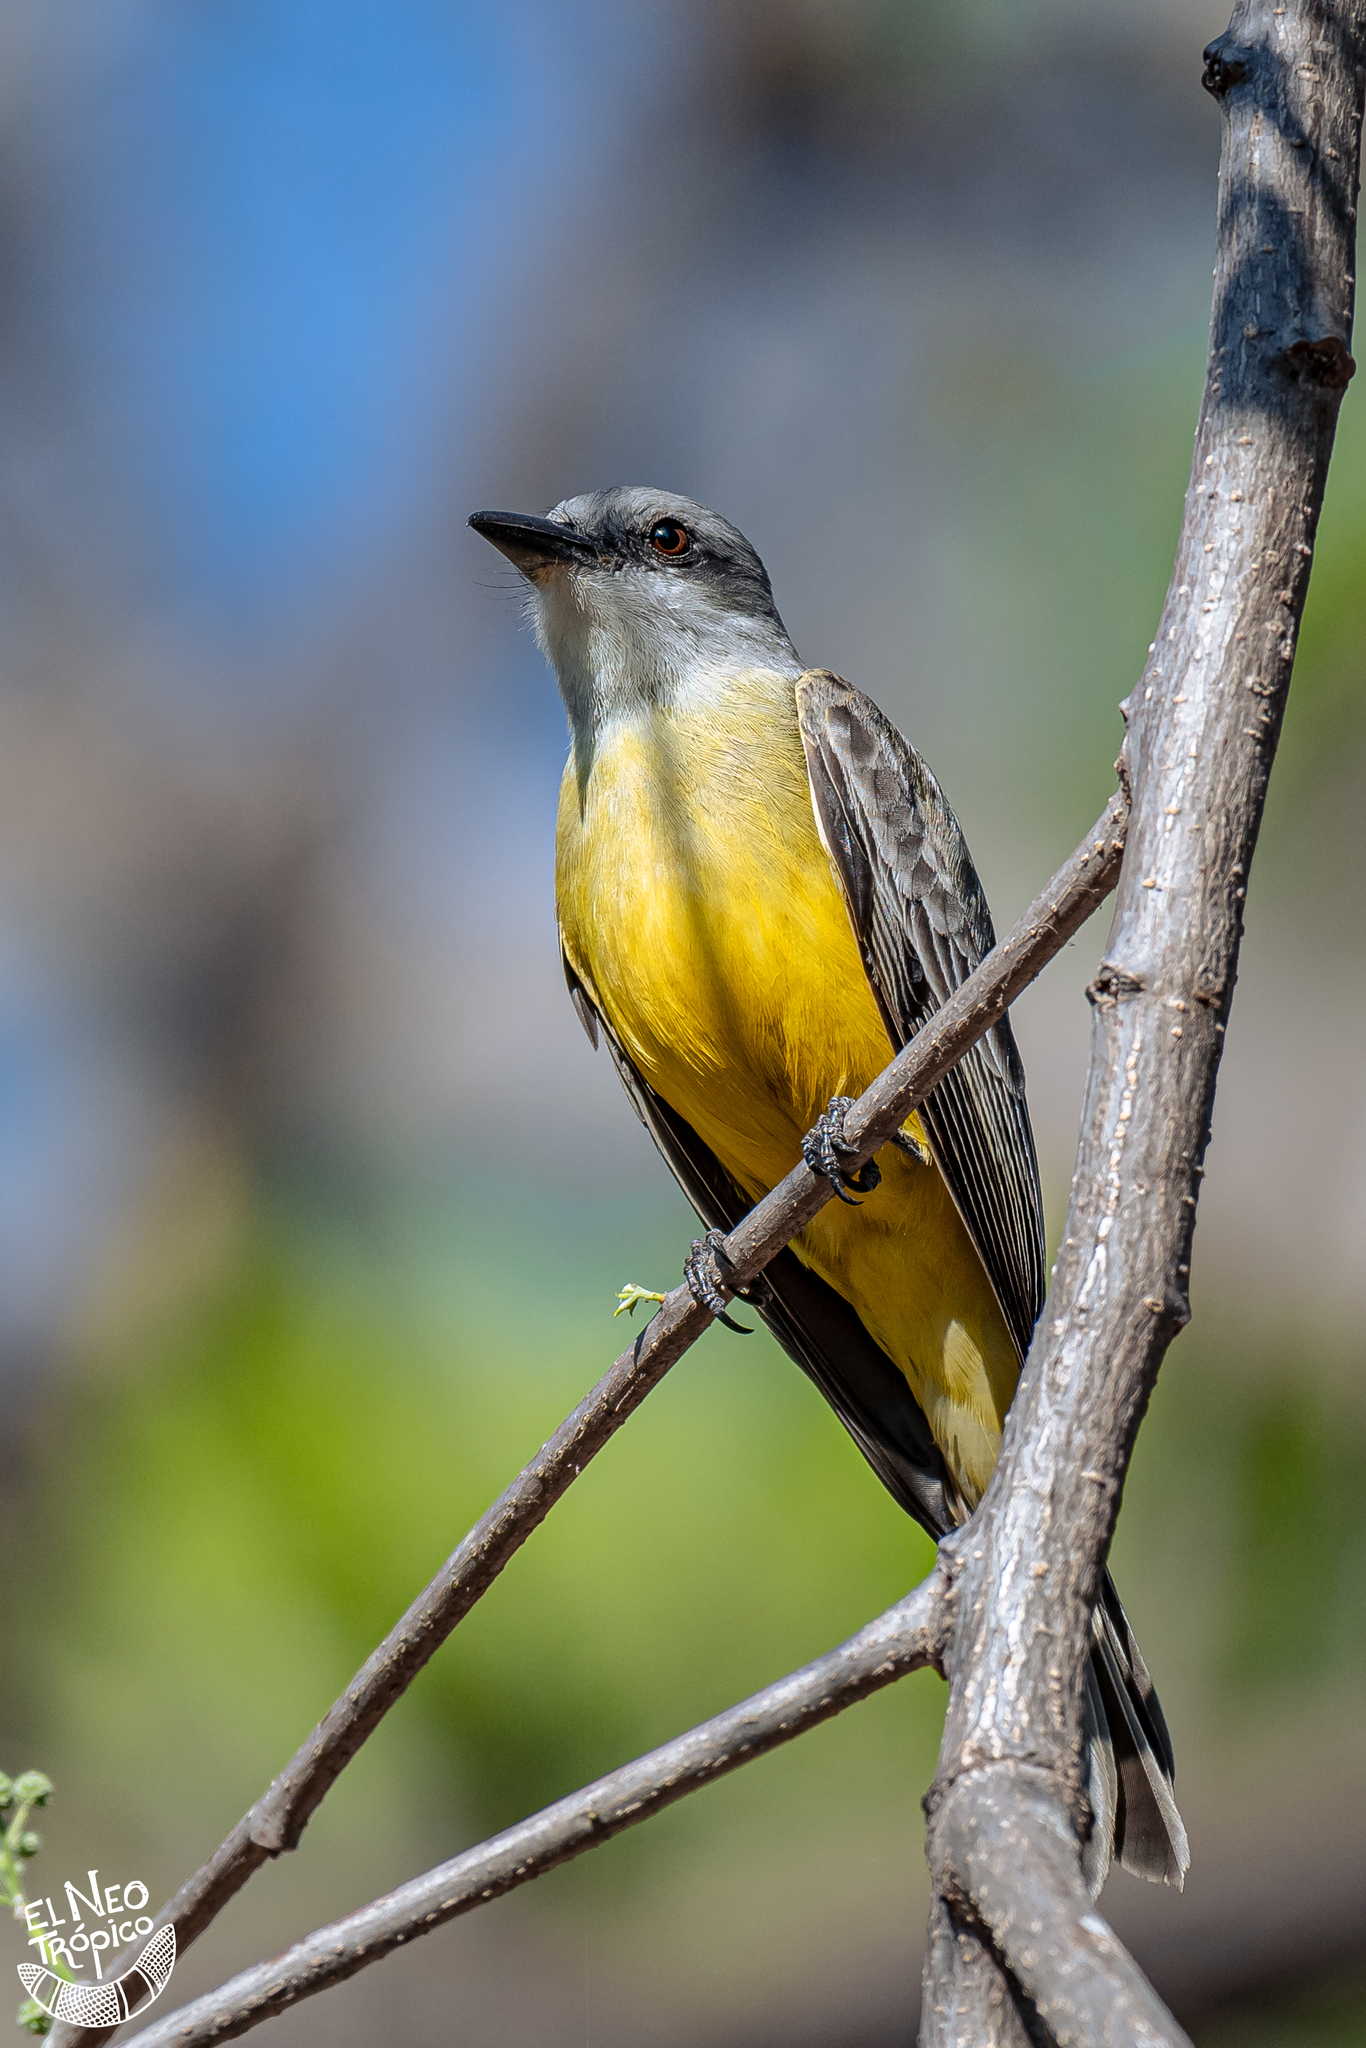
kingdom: Animalia
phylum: Chordata
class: Aves
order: Passeriformes
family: Tyrannidae
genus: Tyrannus
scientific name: Tyrannus melancholicus
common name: Tropical kingbird
